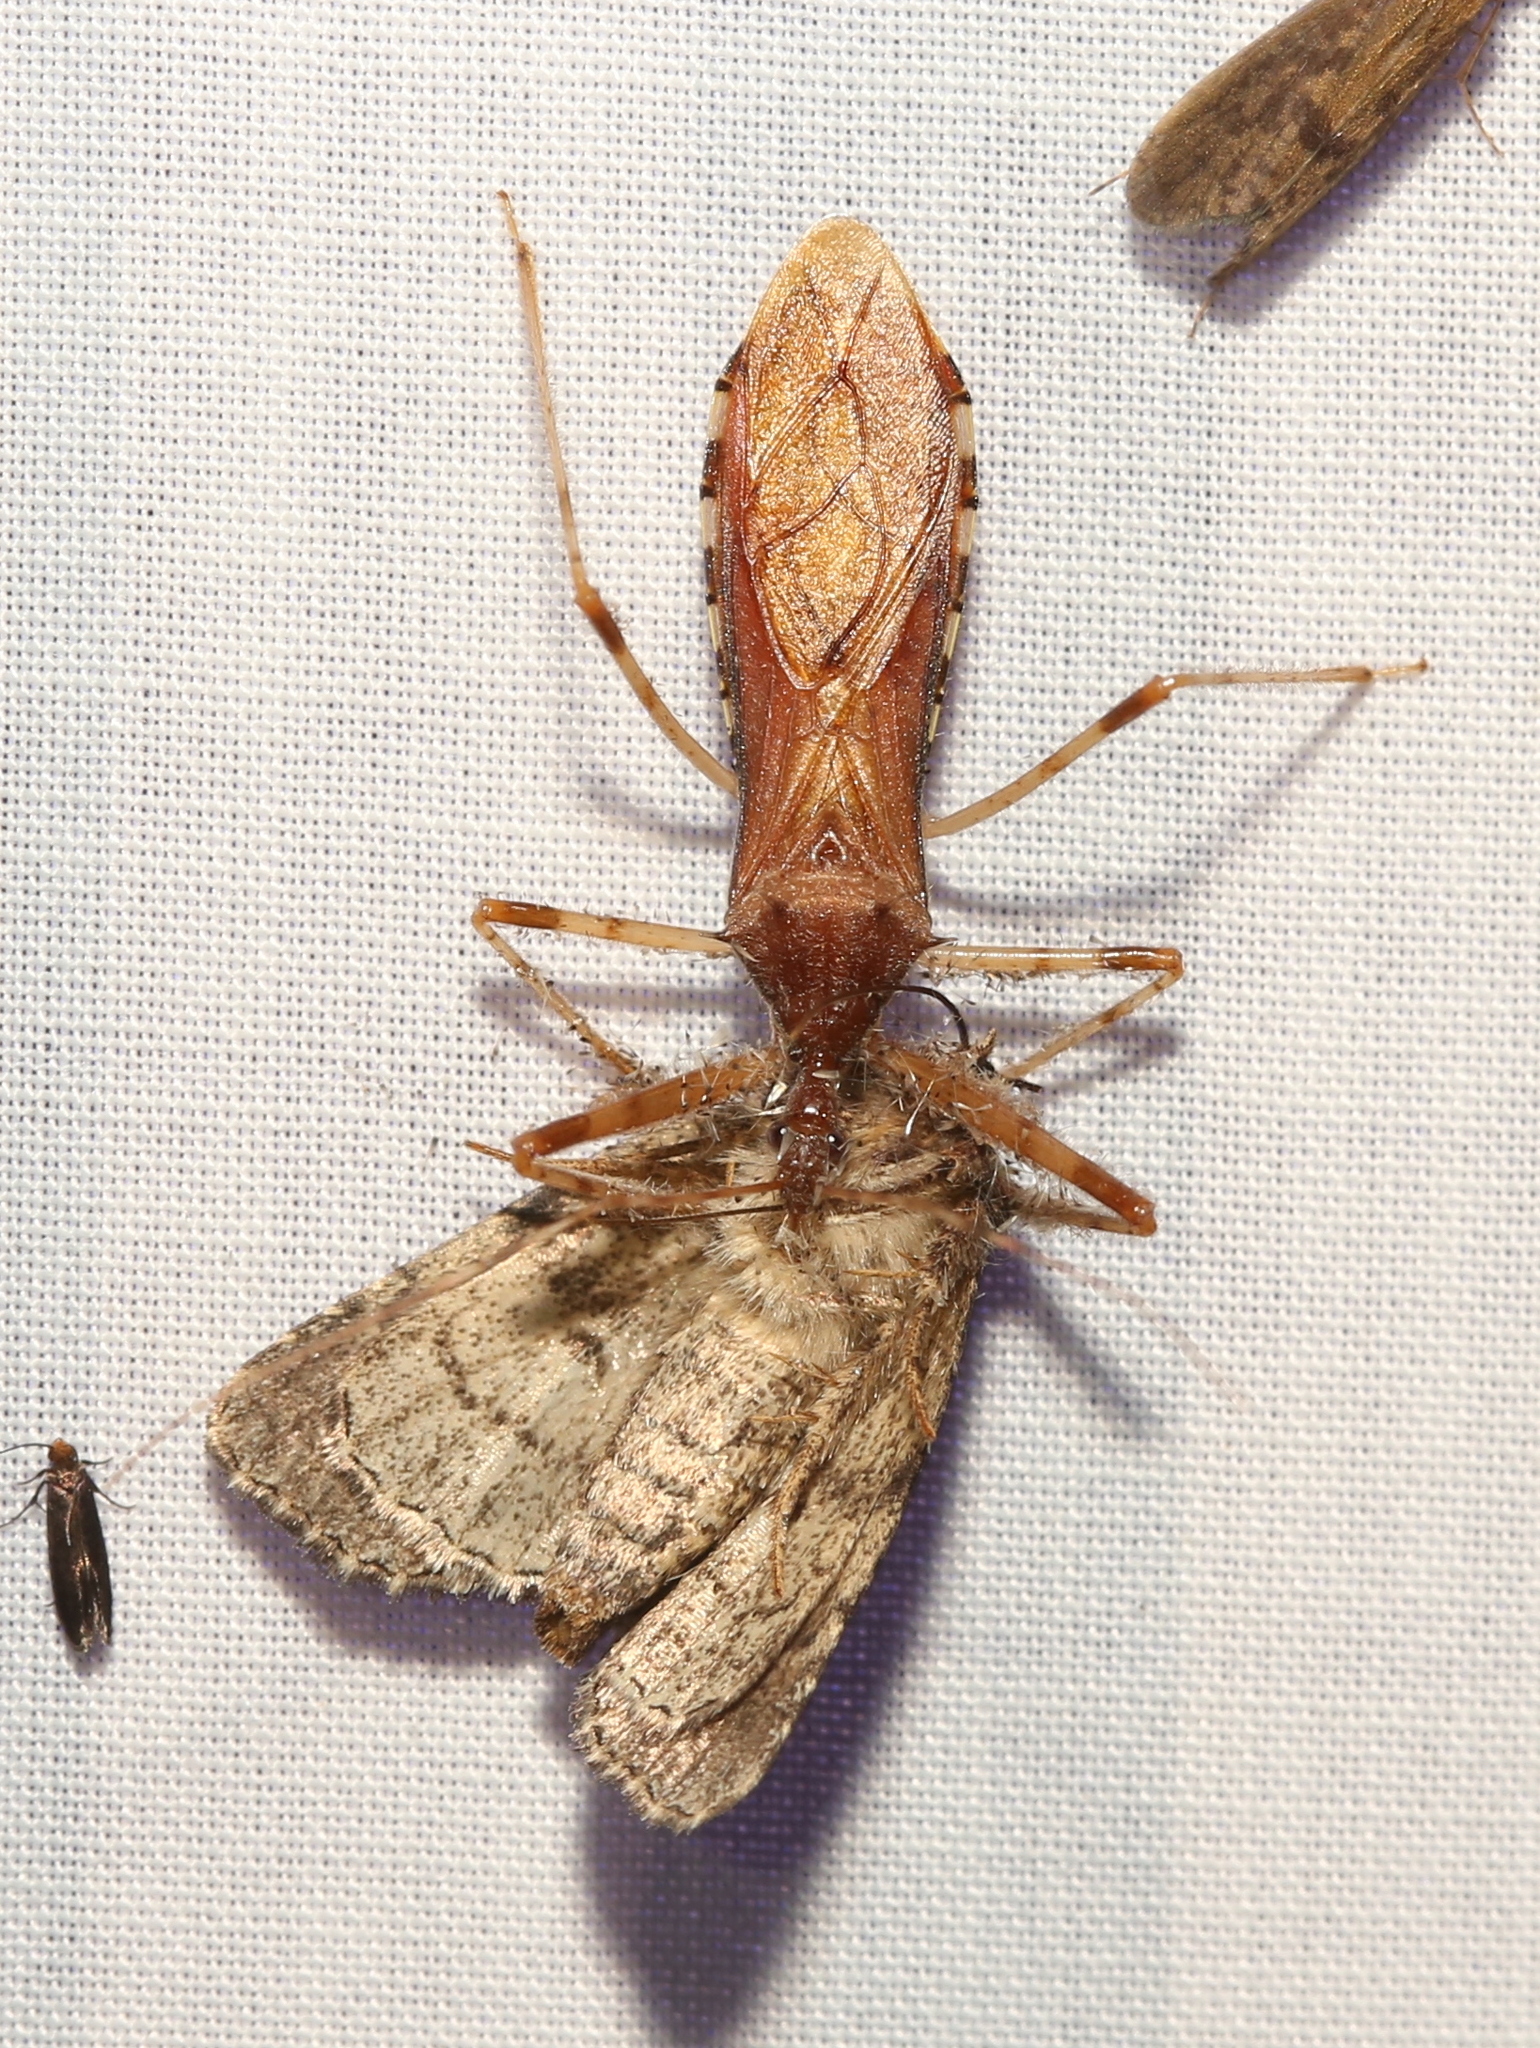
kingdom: Animalia
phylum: Arthropoda
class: Insecta
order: Hemiptera
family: Reduviidae
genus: Rocconota
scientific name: Rocconota annulicornis
